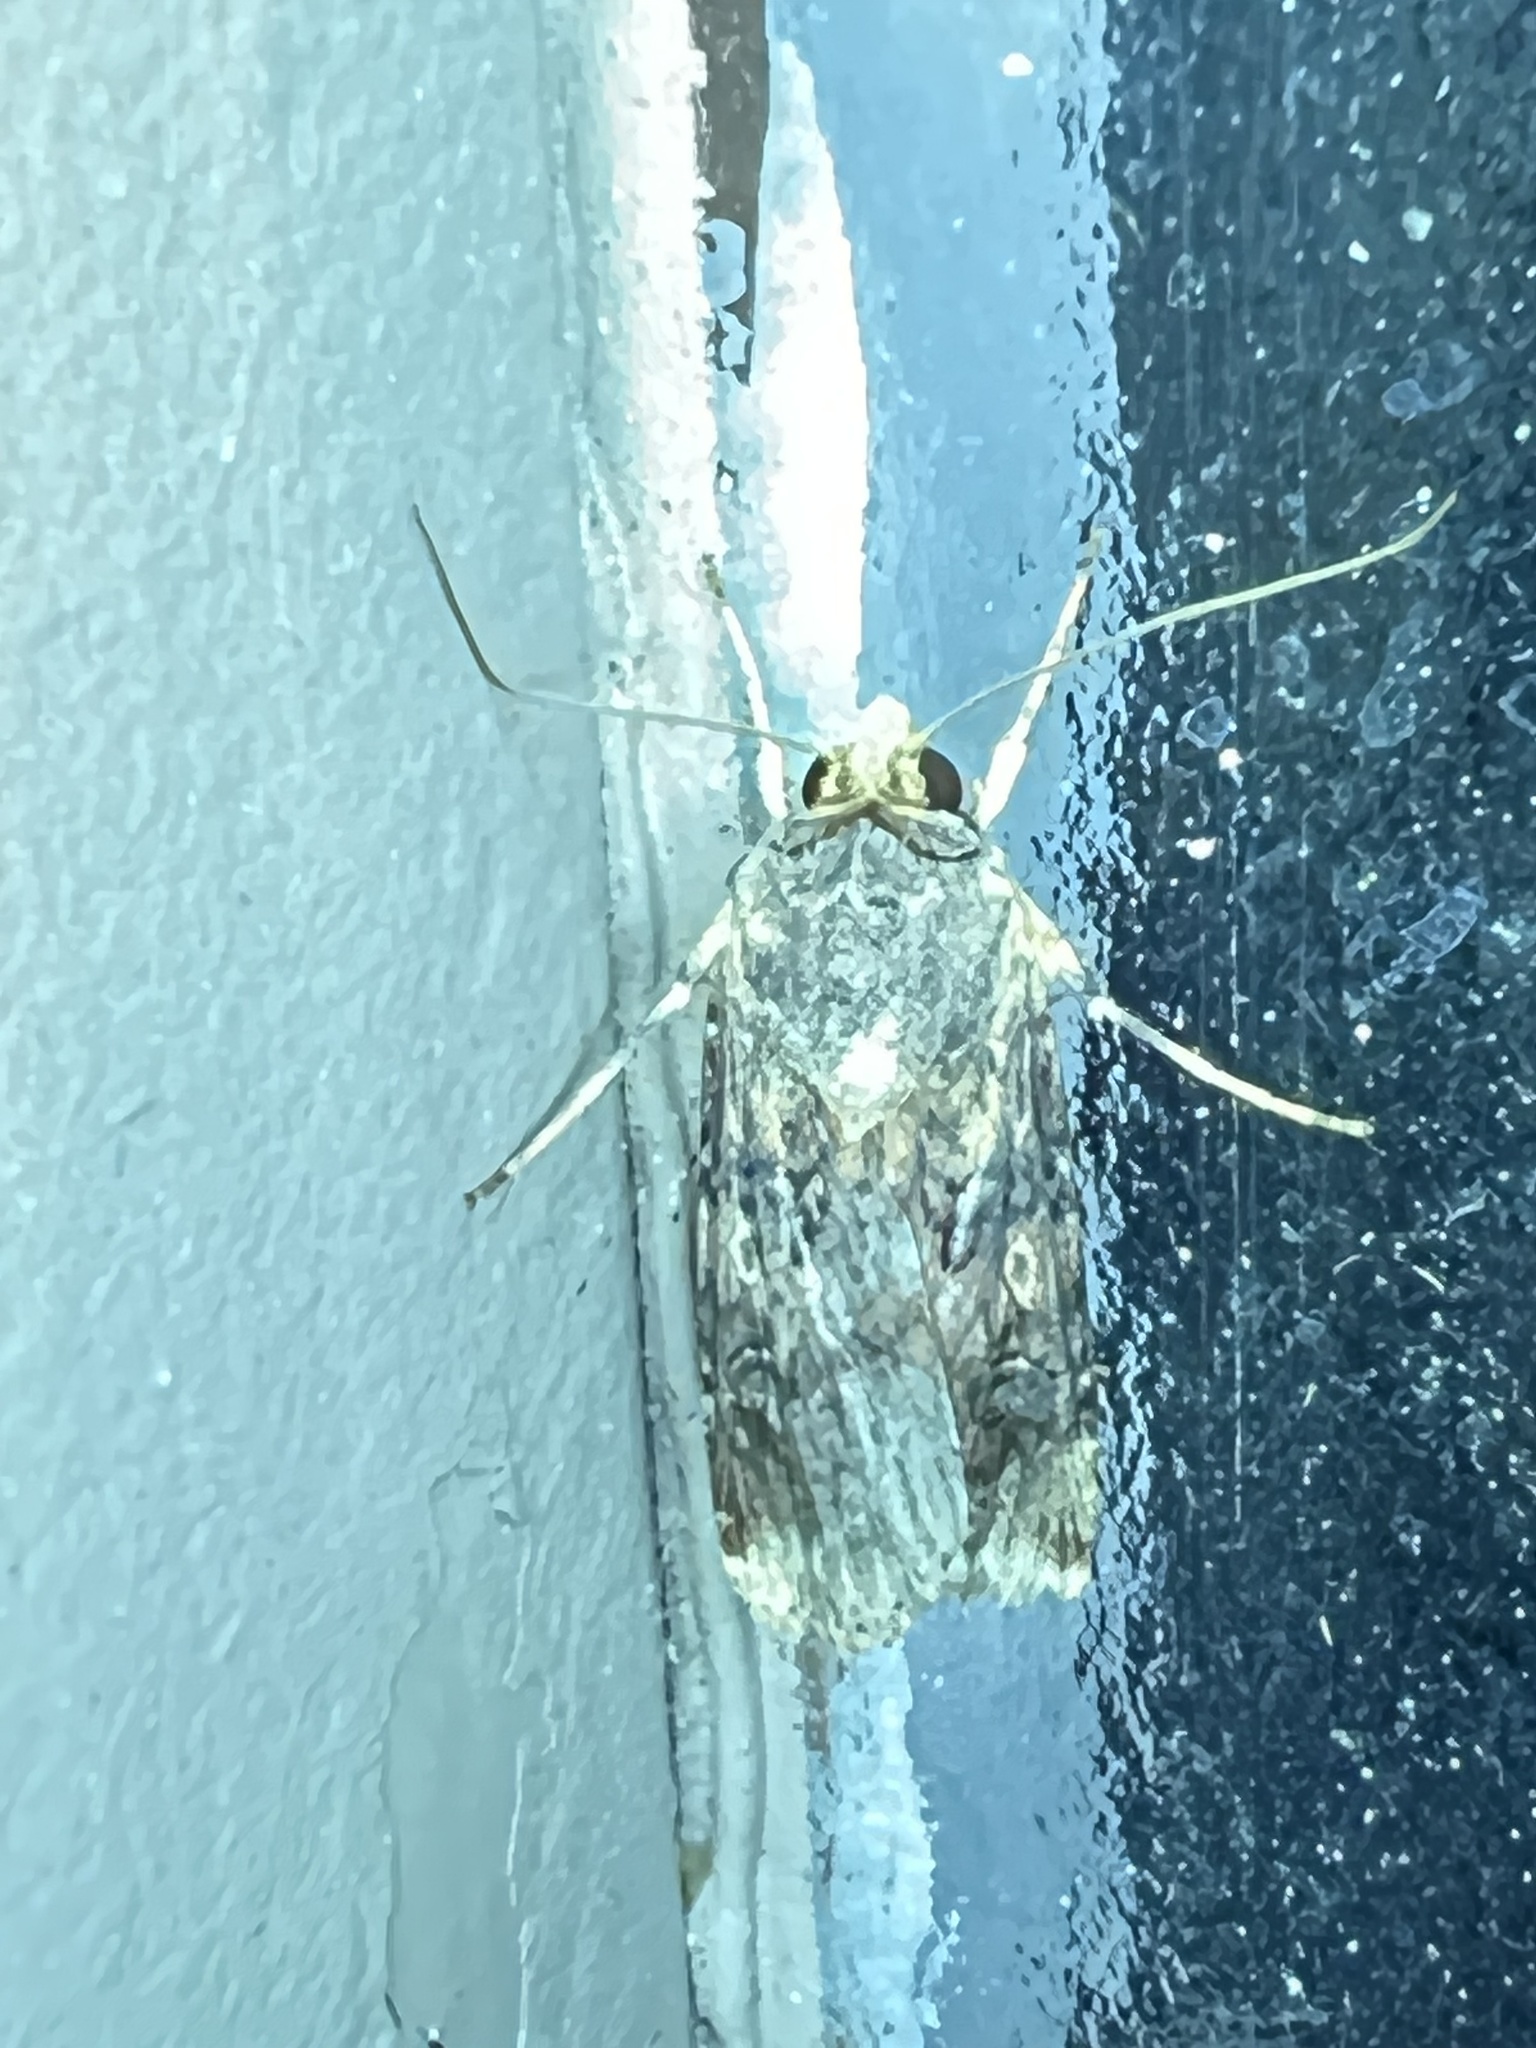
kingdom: Animalia
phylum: Arthropoda
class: Insecta
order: Lepidoptera
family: Noctuidae
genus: Feltia
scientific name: Feltia subterranea
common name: Granulate cutworm
